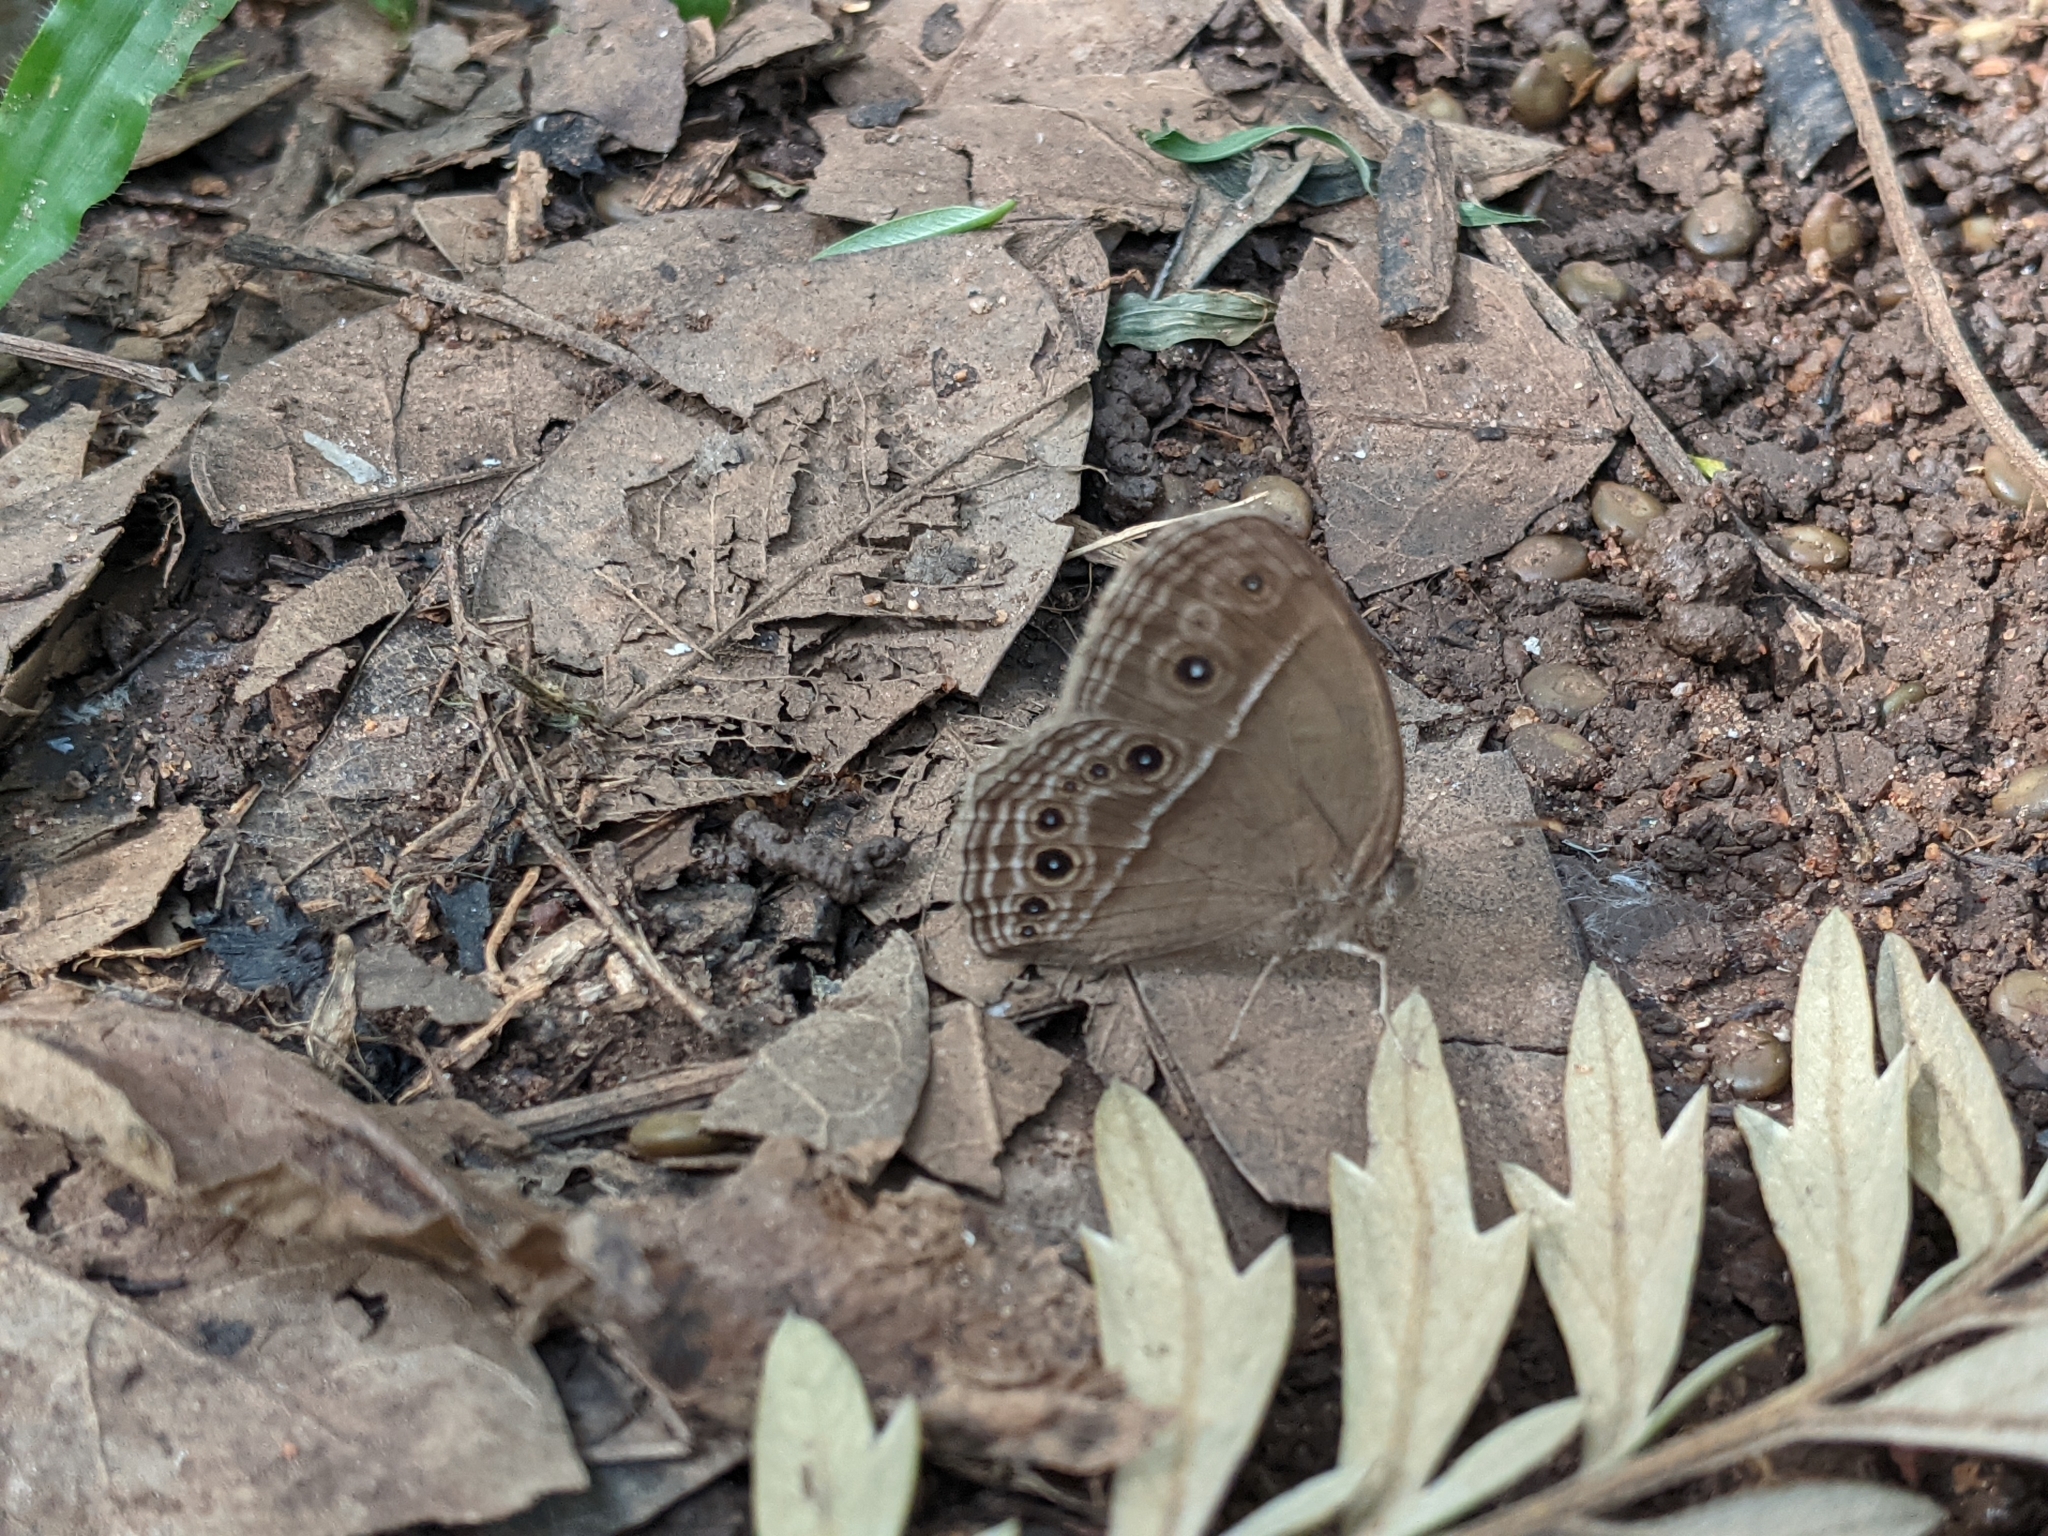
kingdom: Animalia
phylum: Arthropoda
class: Insecta
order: Lepidoptera
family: Nymphalidae
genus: Mycalesis
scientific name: Mycalesis perseus
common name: Dingy bushbrown
